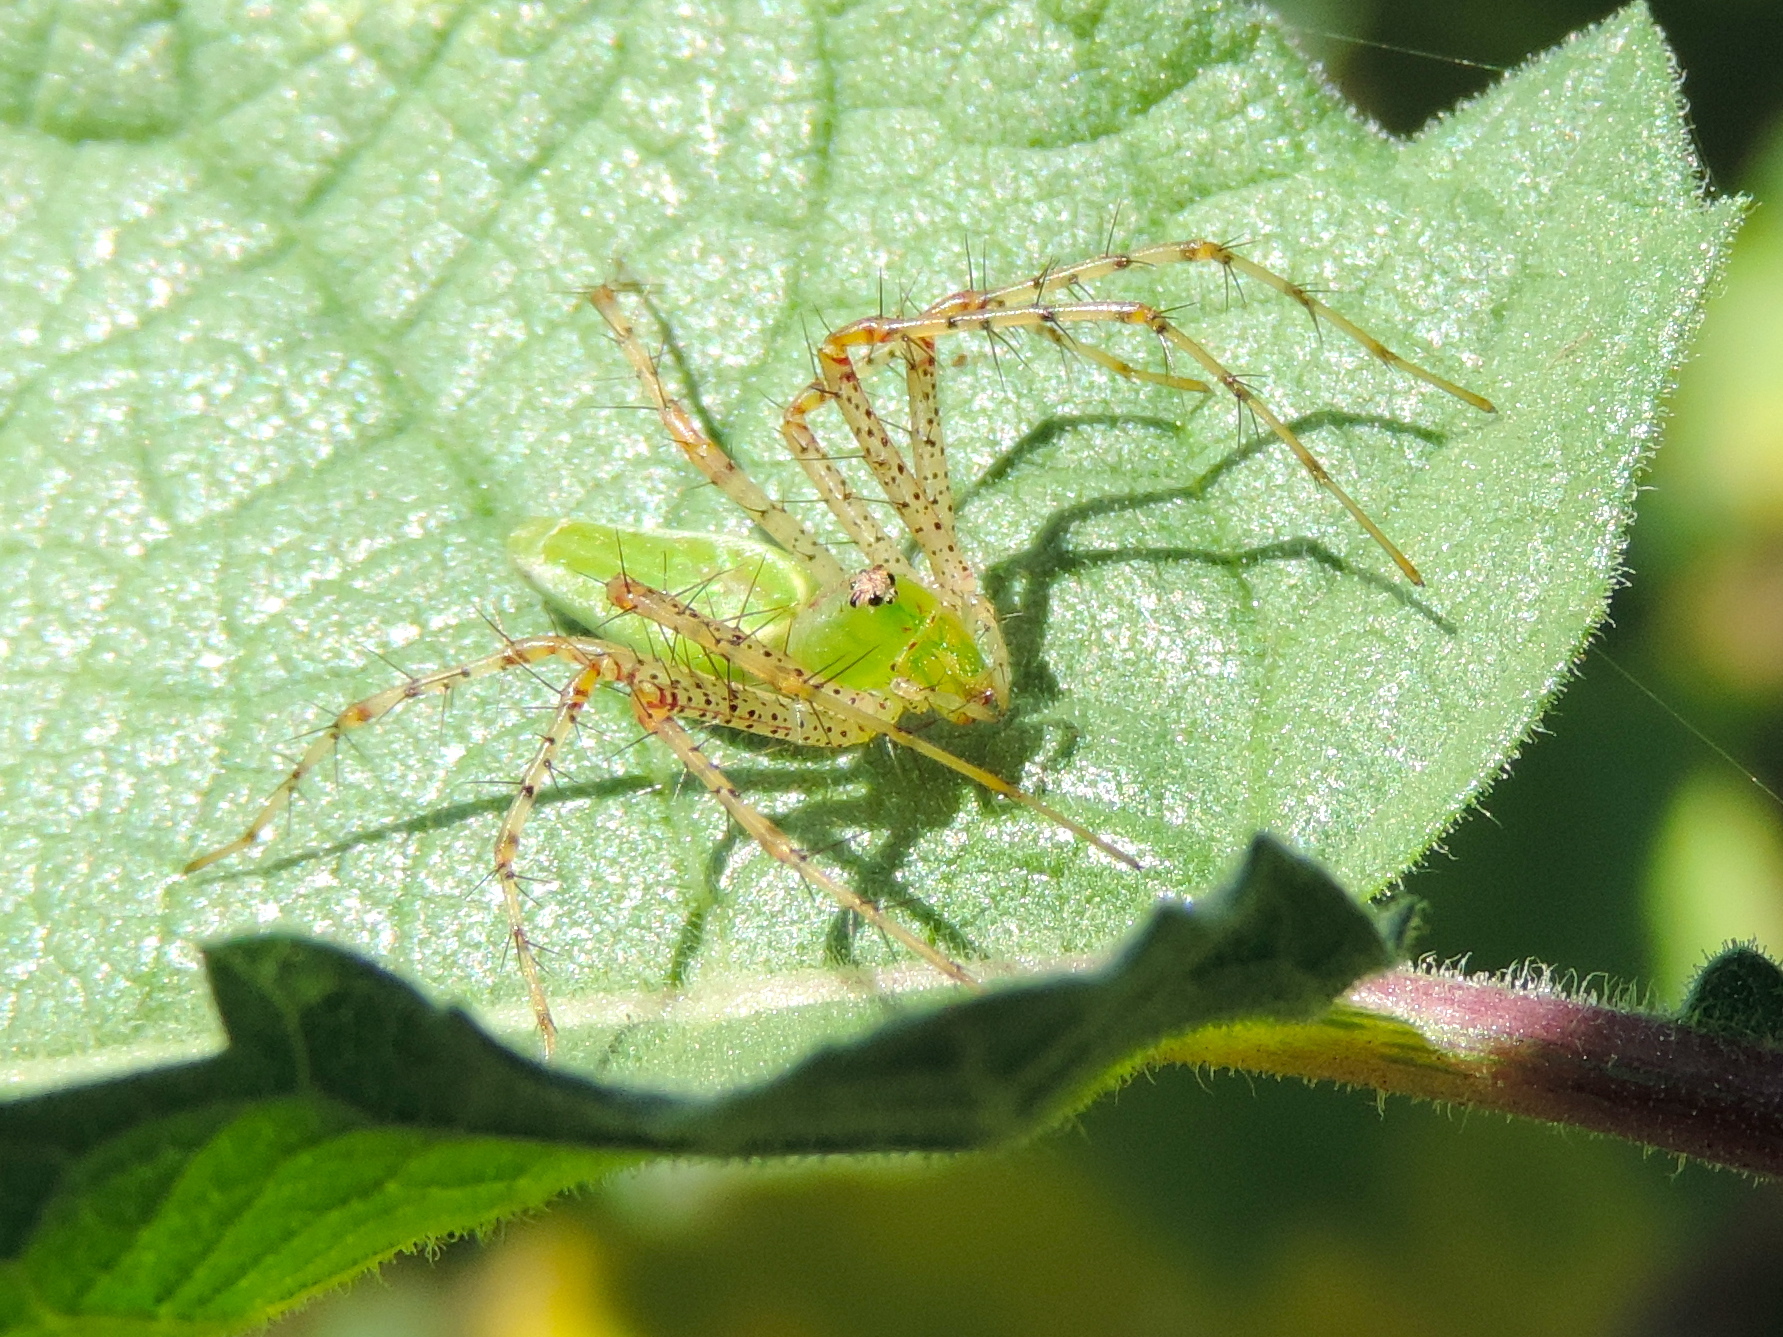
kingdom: Animalia
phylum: Arthropoda
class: Arachnida
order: Araneae
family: Oxyopidae
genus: Peucetia
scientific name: Peucetia longipalpis
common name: Lynx spiders
